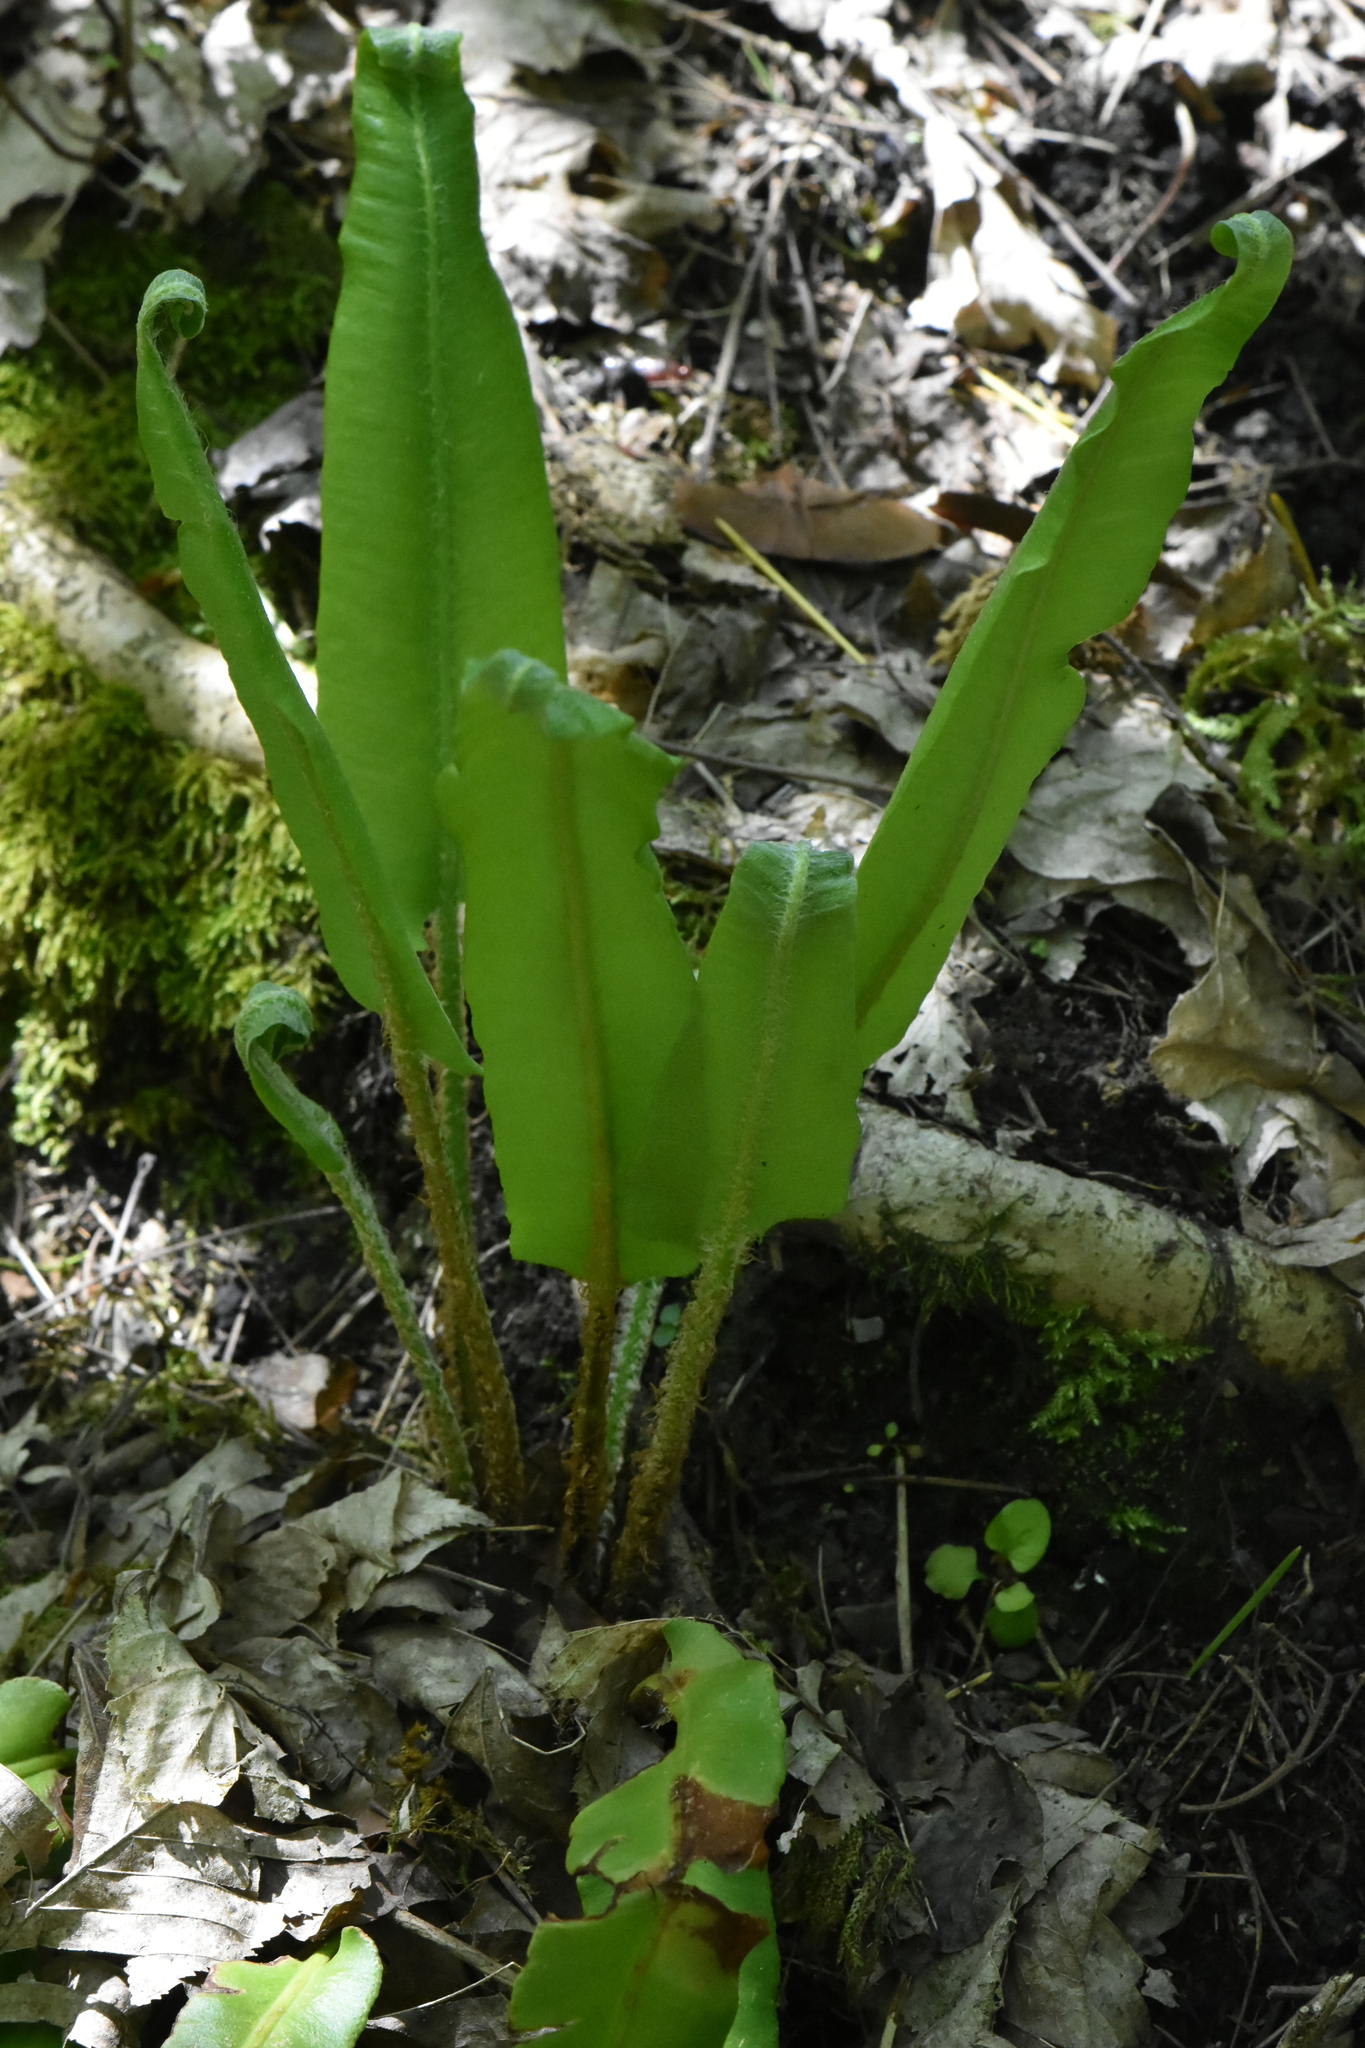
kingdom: Plantae
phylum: Tracheophyta
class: Polypodiopsida
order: Polypodiales
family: Aspleniaceae
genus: Asplenium
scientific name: Asplenium scolopendrium
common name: Hart's-tongue fern
